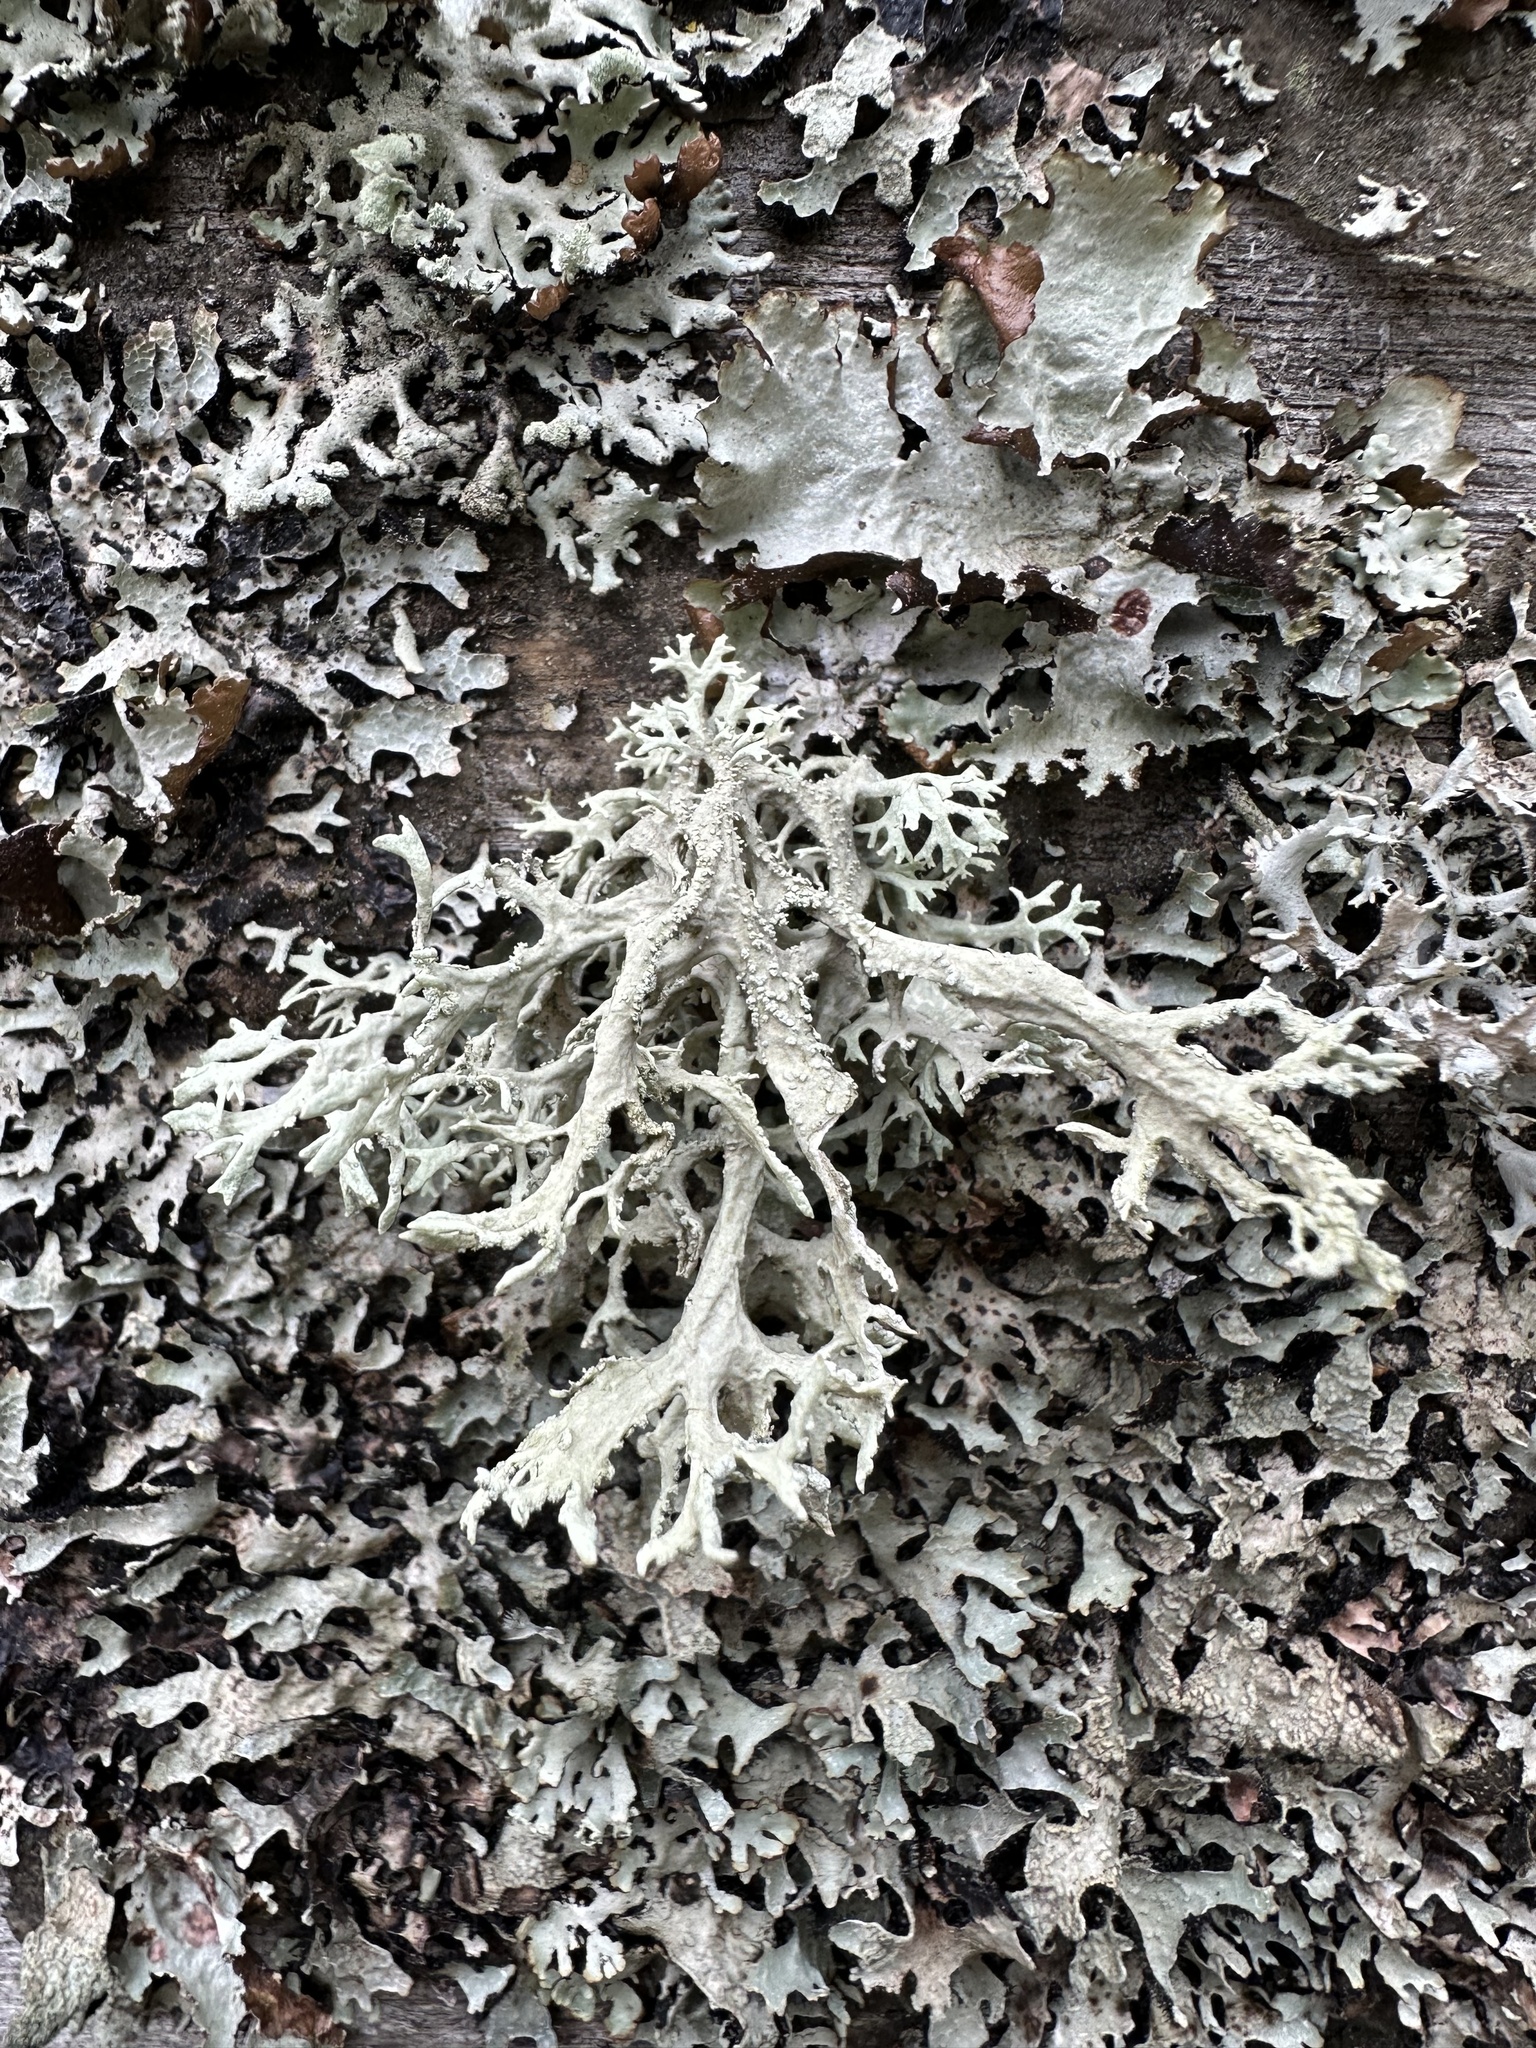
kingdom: Fungi
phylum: Ascomycota
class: Lecanoromycetes
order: Lecanorales
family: Parmeliaceae
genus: Evernia
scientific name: Evernia prunastri
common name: Oak moss
